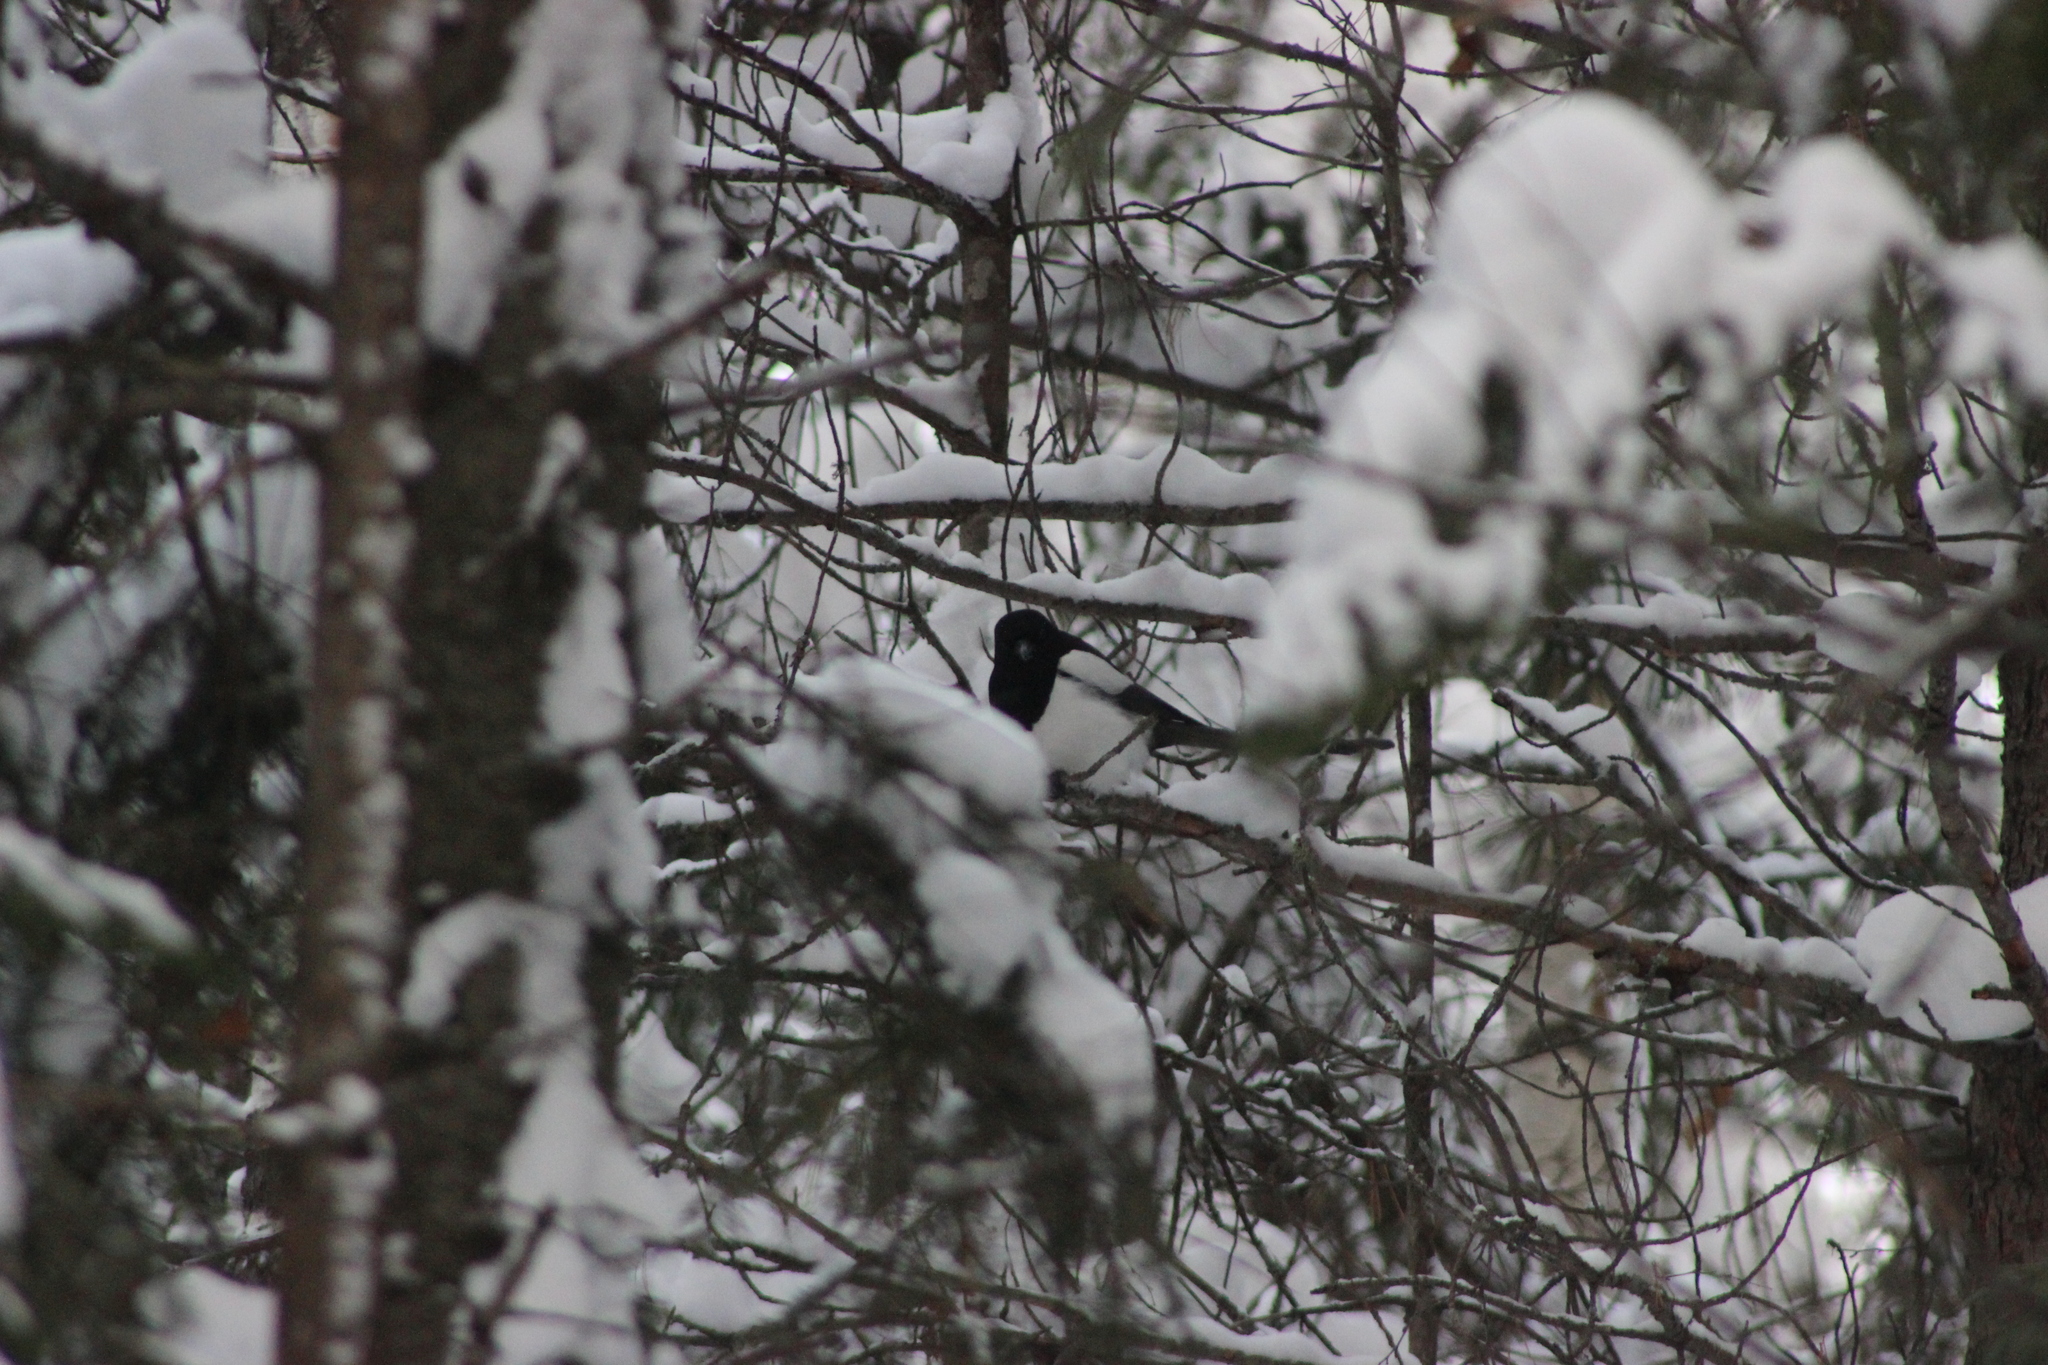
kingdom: Animalia
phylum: Chordata
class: Aves
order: Passeriformes
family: Corvidae
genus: Pica
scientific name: Pica pica
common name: Eurasian magpie
